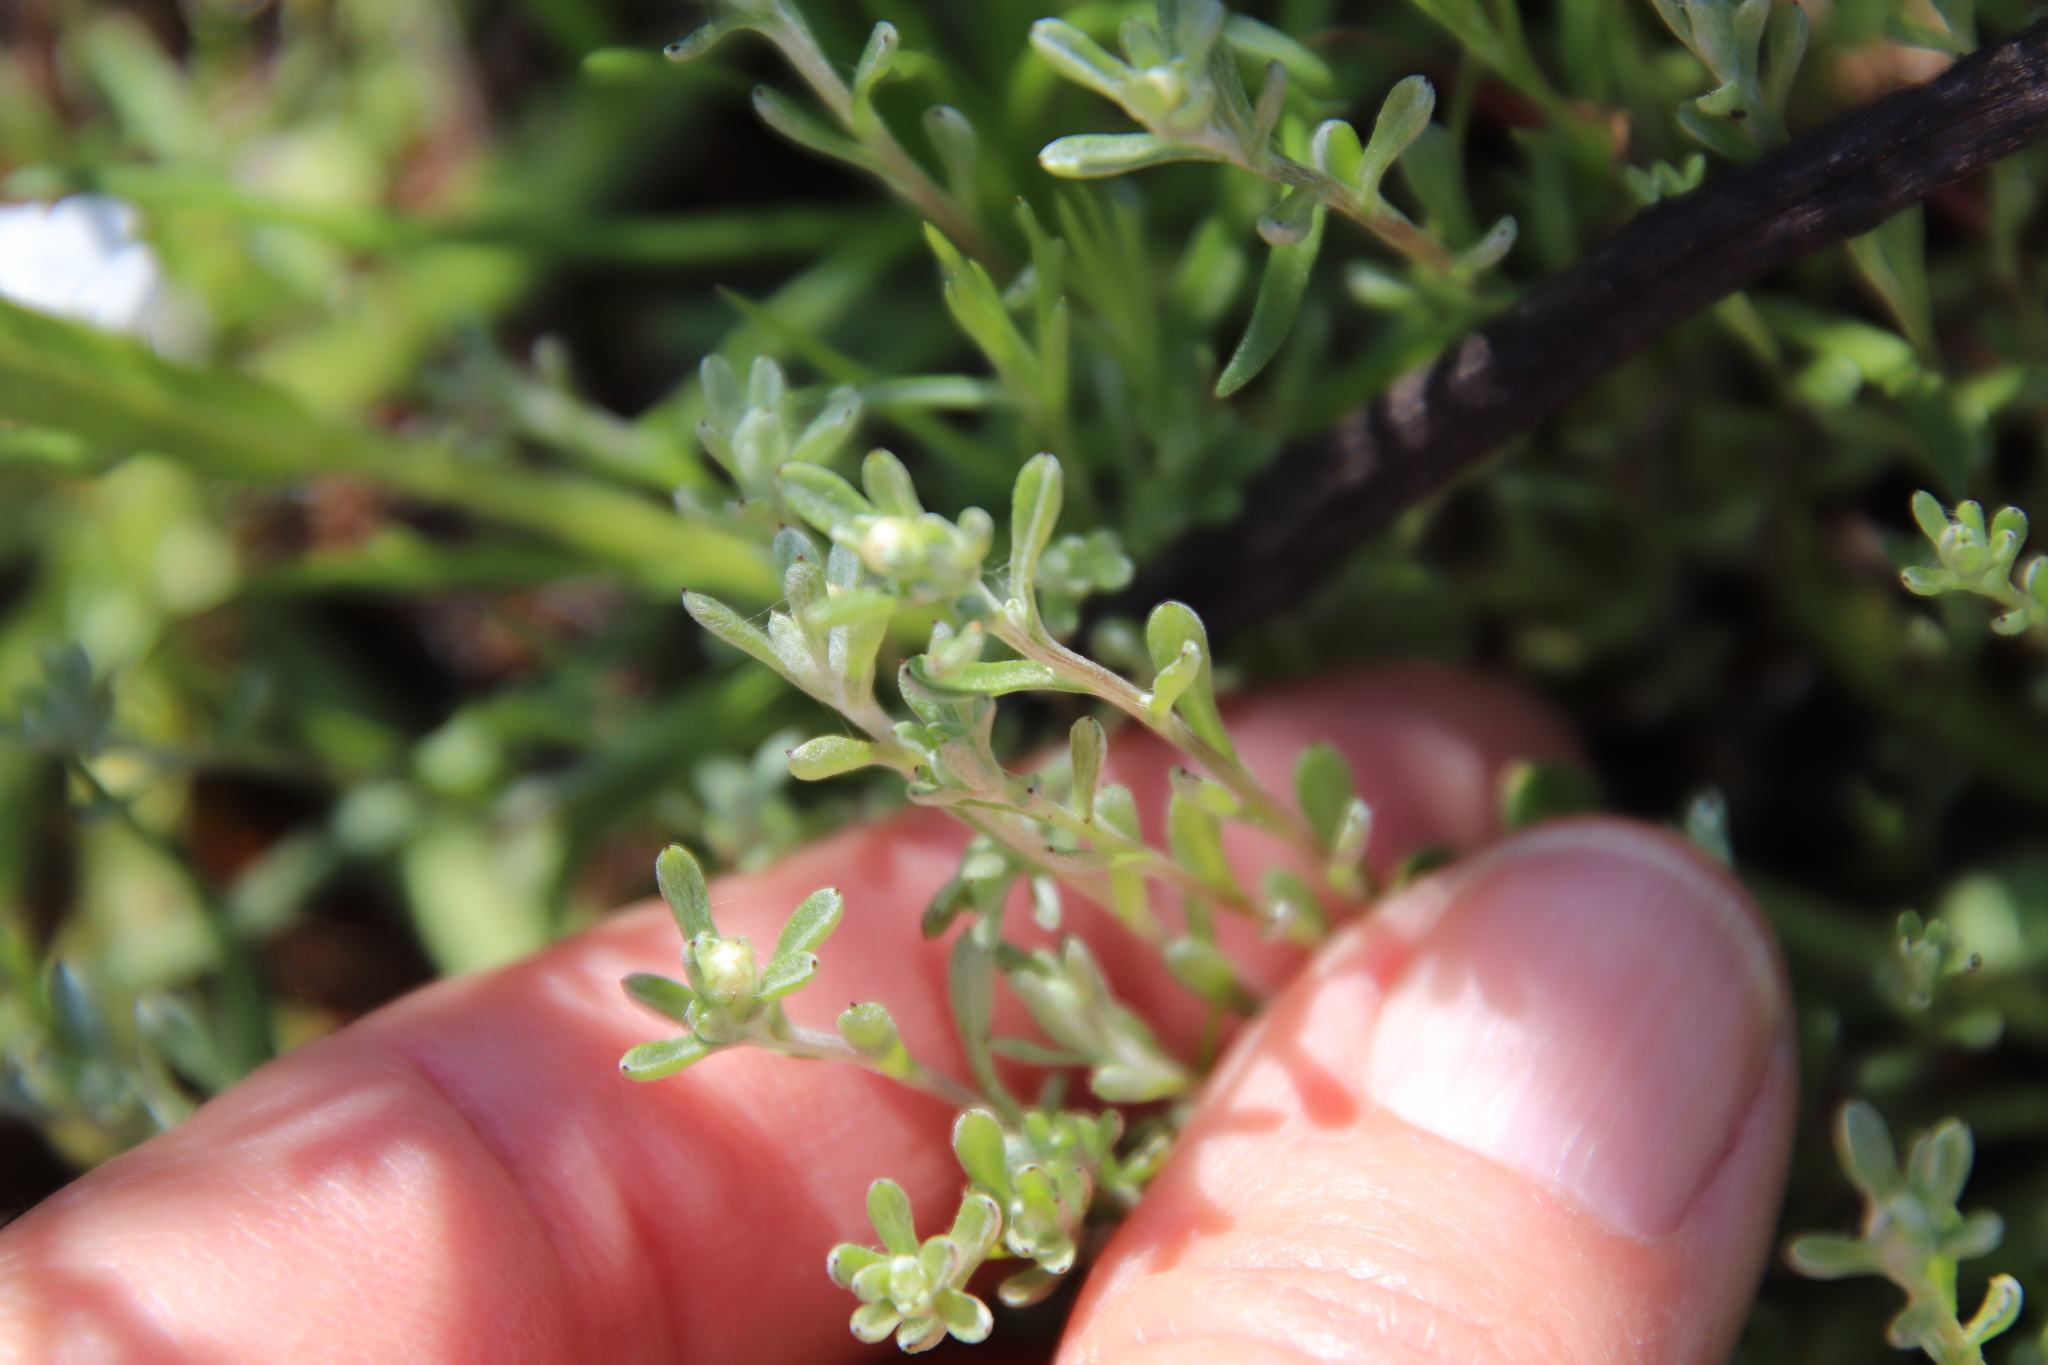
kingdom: Plantae
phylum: Tracheophyta
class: Magnoliopsida
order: Asterales
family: Asteraceae
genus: Logfia
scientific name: Logfia californica
